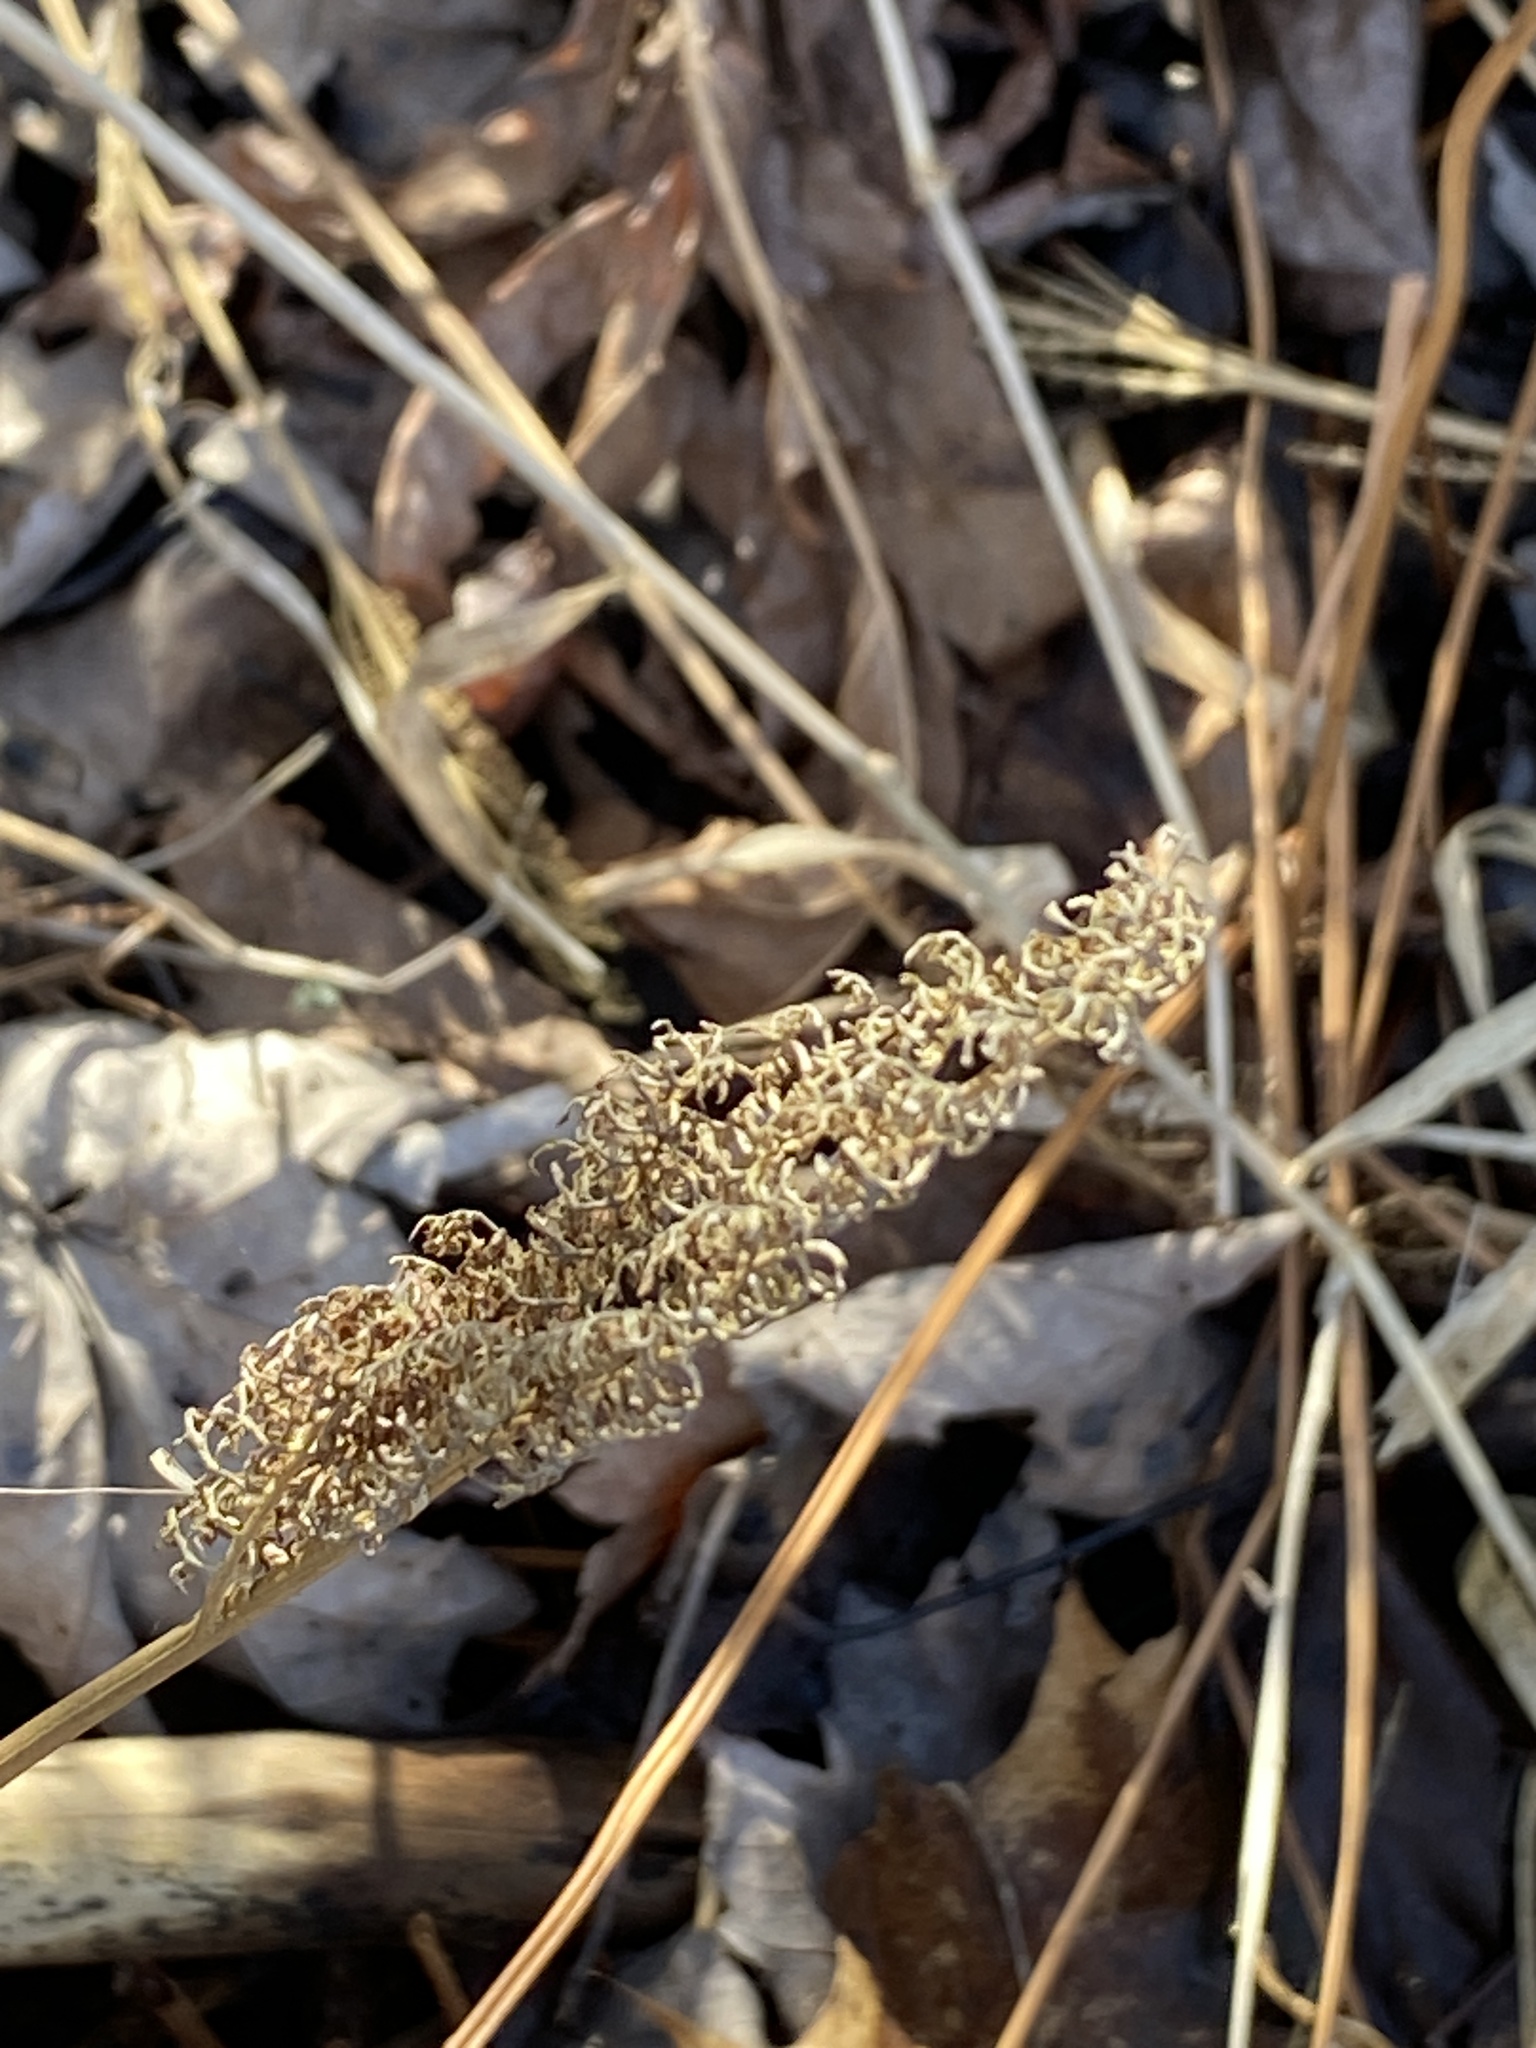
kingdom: Plantae
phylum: Tracheophyta
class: Polypodiopsida
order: Polypodiales
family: Onocleaceae
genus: Onoclea
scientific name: Onoclea sensibilis
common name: Sensitive fern
